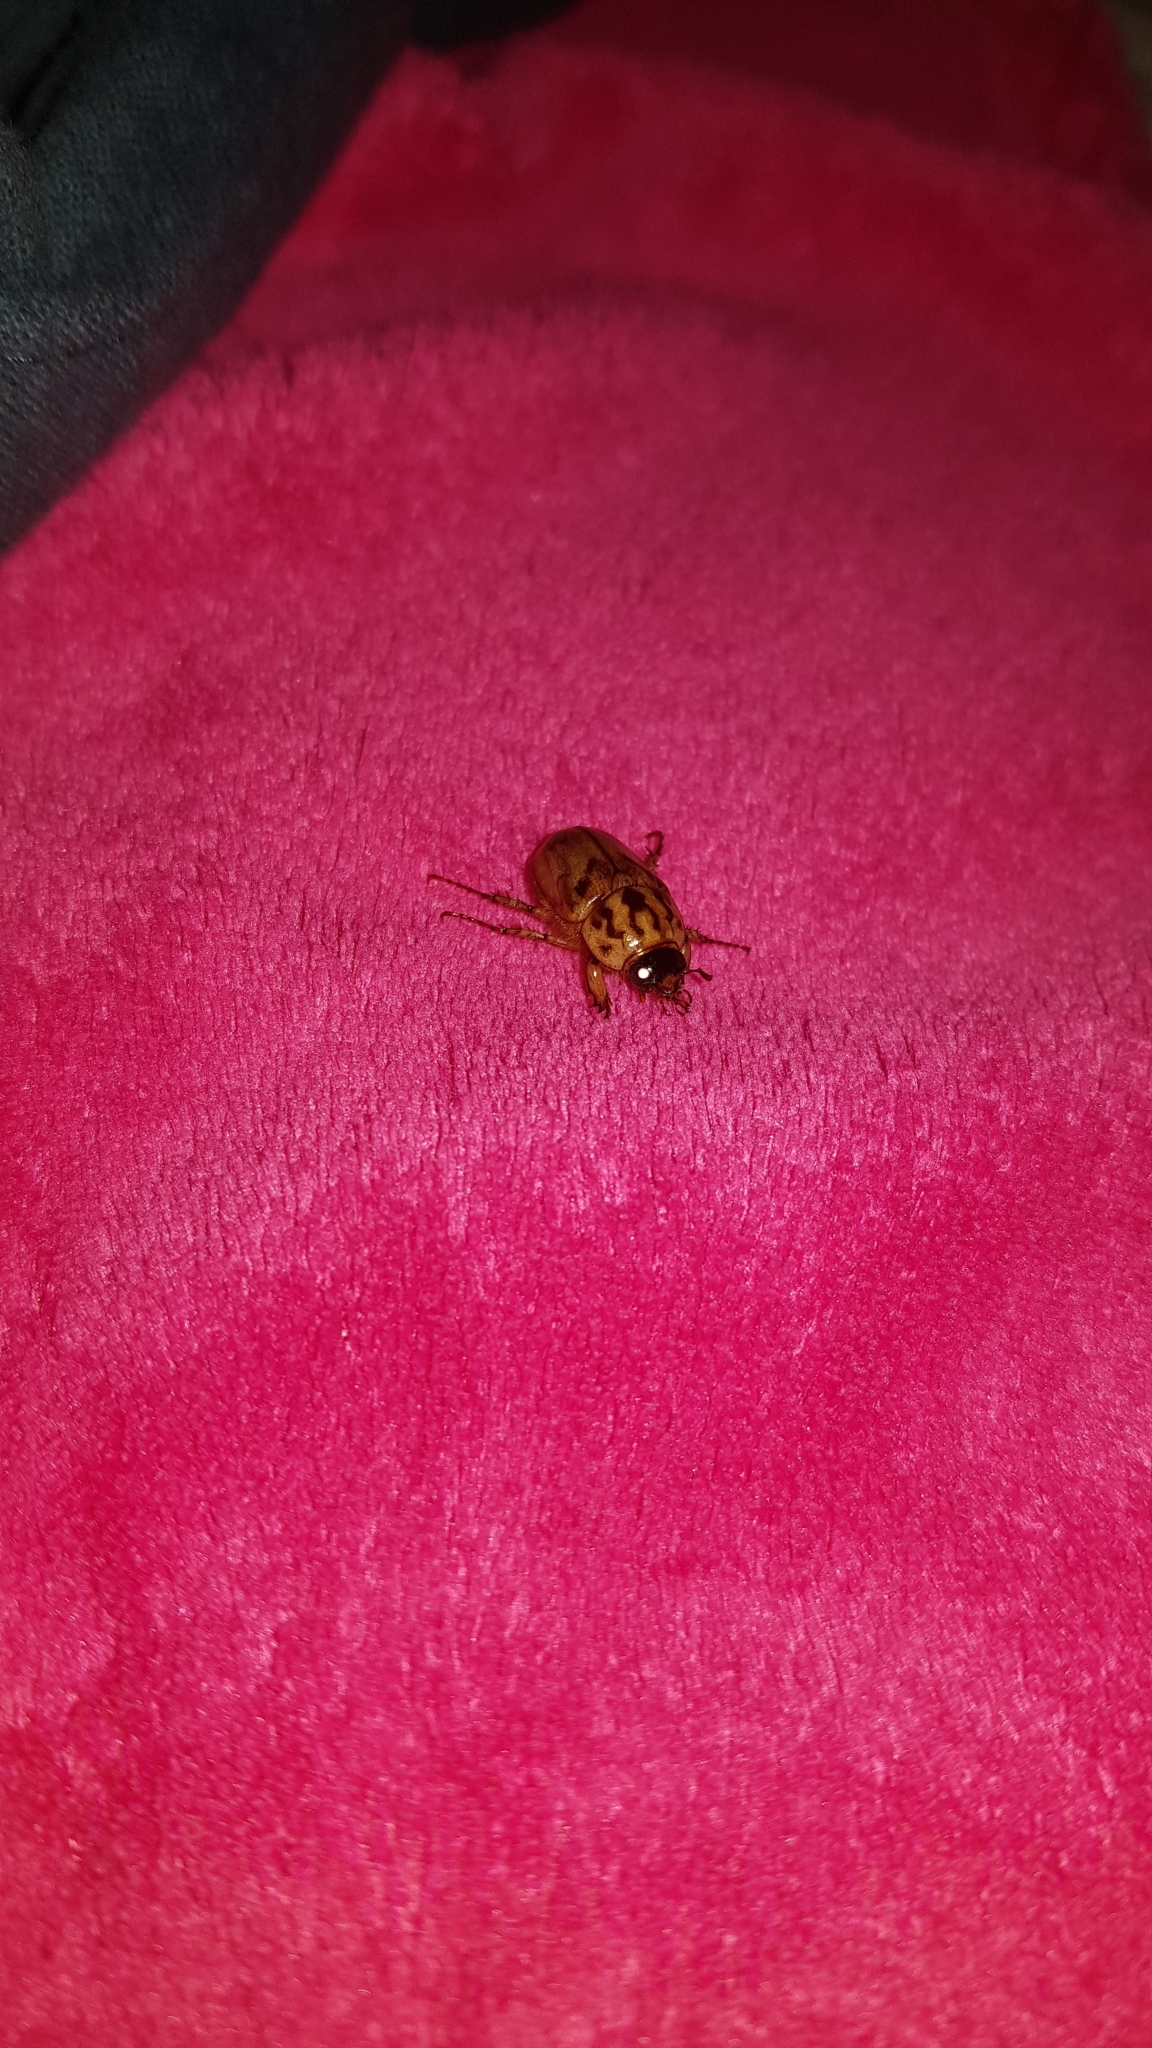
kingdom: Animalia
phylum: Arthropoda
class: Insecta
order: Coleoptera
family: Scarabaeidae
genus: Cyclocephala
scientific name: Cyclocephala signaticollis
